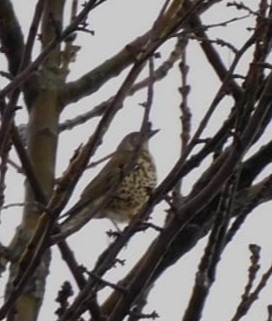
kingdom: Animalia
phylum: Chordata
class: Aves
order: Passeriformes
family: Turdidae
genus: Turdus
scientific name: Turdus viscivorus
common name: Mistle thrush
